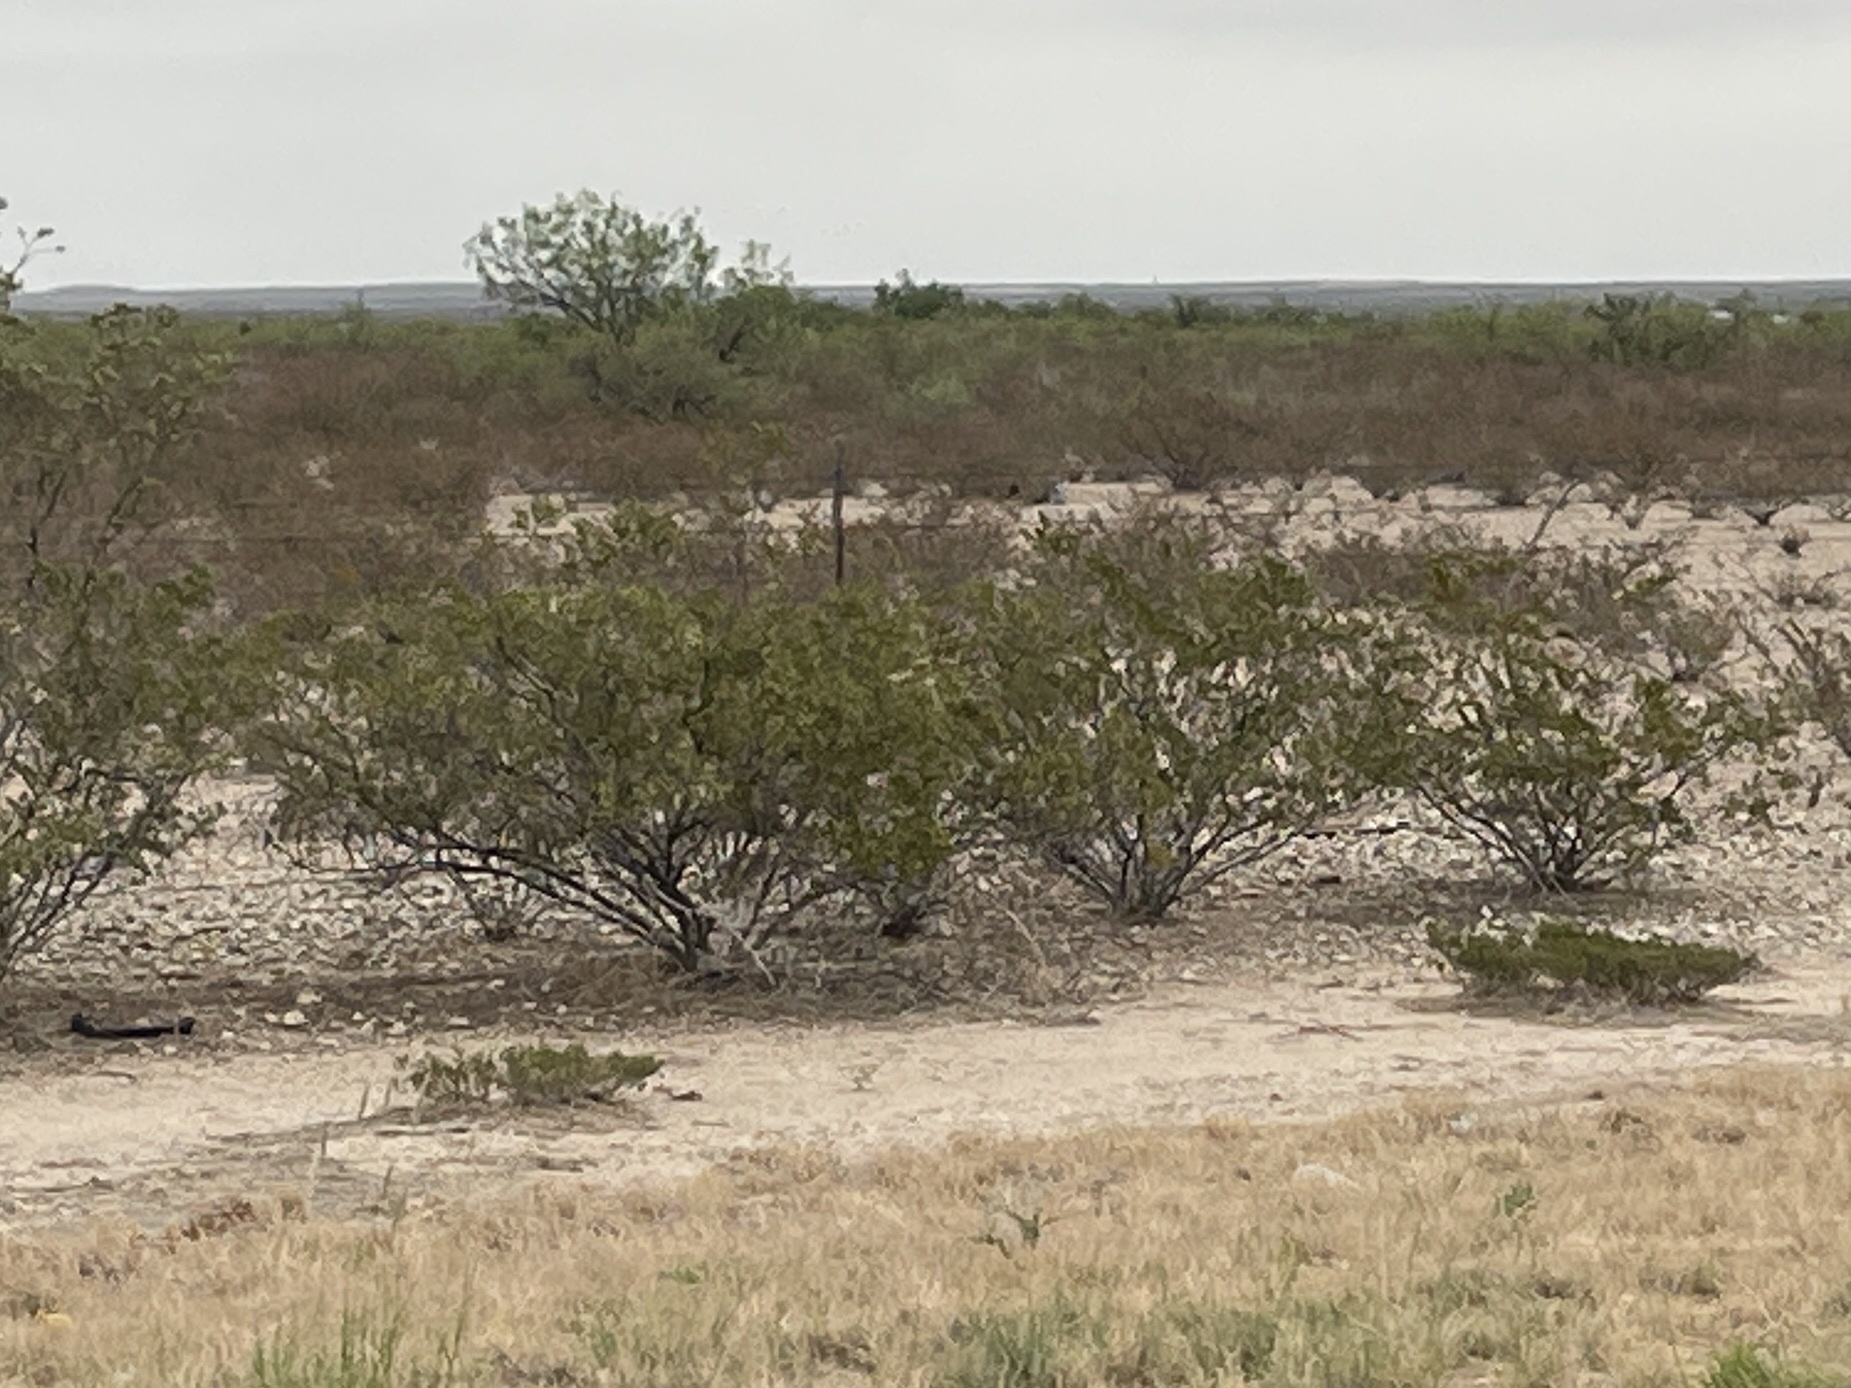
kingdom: Plantae
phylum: Tracheophyta
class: Magnoliopsida
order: Zygophyllales
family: Zygophyllaceae
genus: Larrea
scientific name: Larrea tridentata
